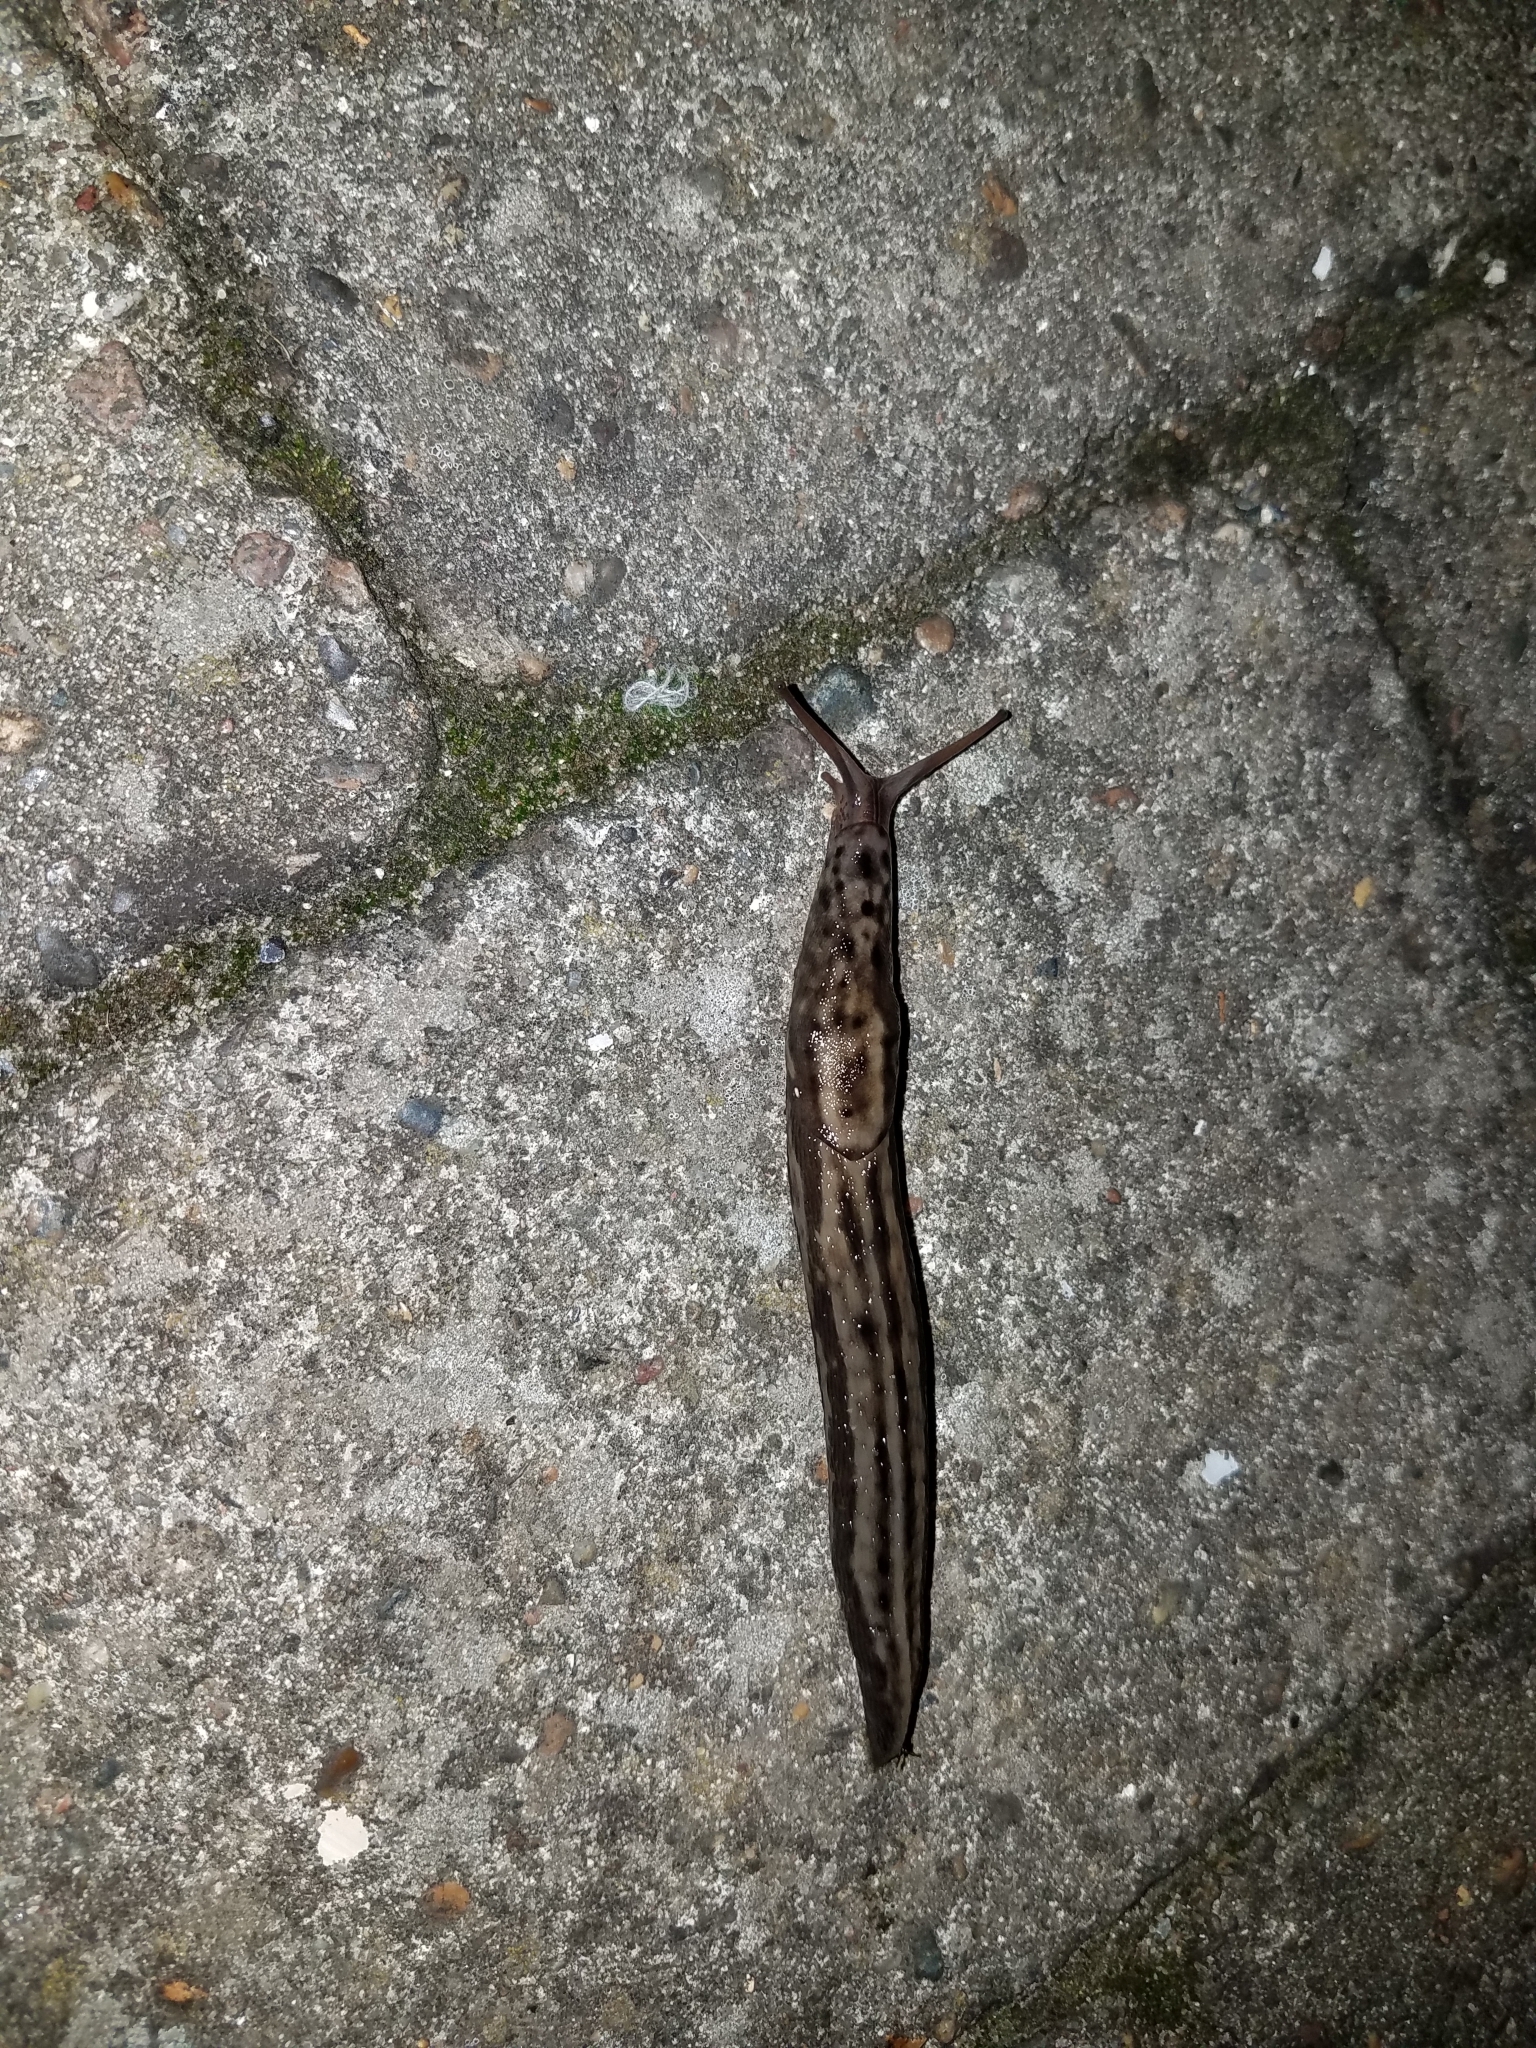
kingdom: Animalia
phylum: Mollusca
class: Gastropoda
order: Stylommatophora
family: Limacidae
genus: Limax
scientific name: Limax maximus
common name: Great grey slug
